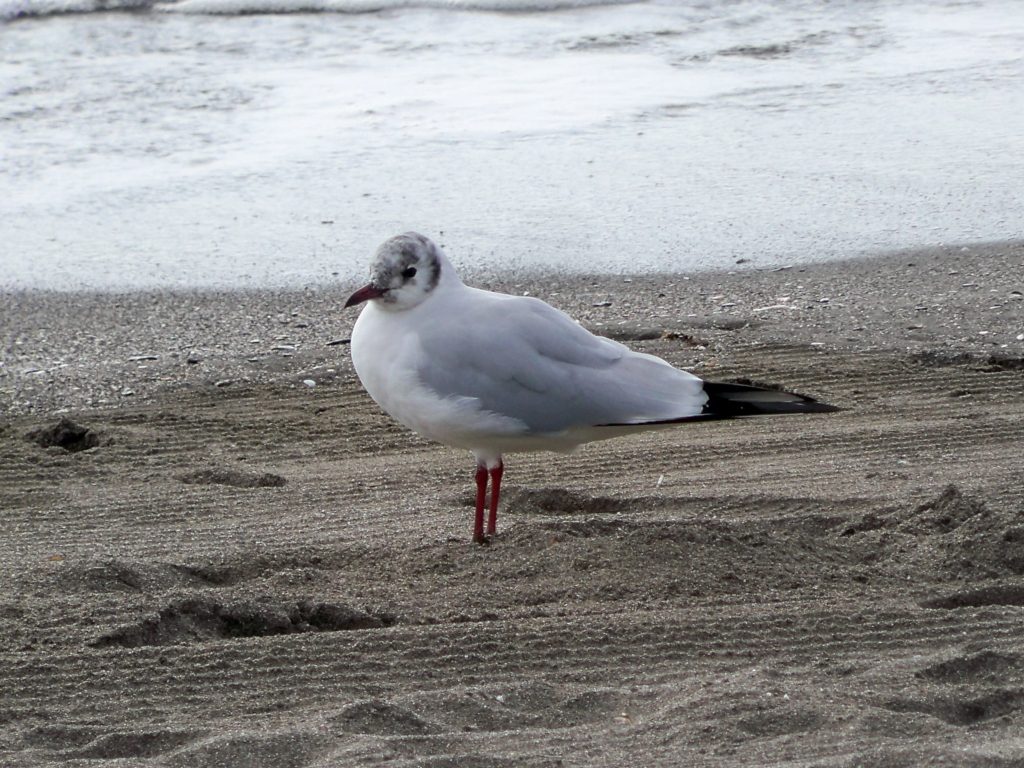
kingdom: Animalia
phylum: Chordata
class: Aves
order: Charadriiformes
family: Laridae
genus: Chroicocephalus
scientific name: Chroicocephalus ridibundus
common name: Black-headed gull
